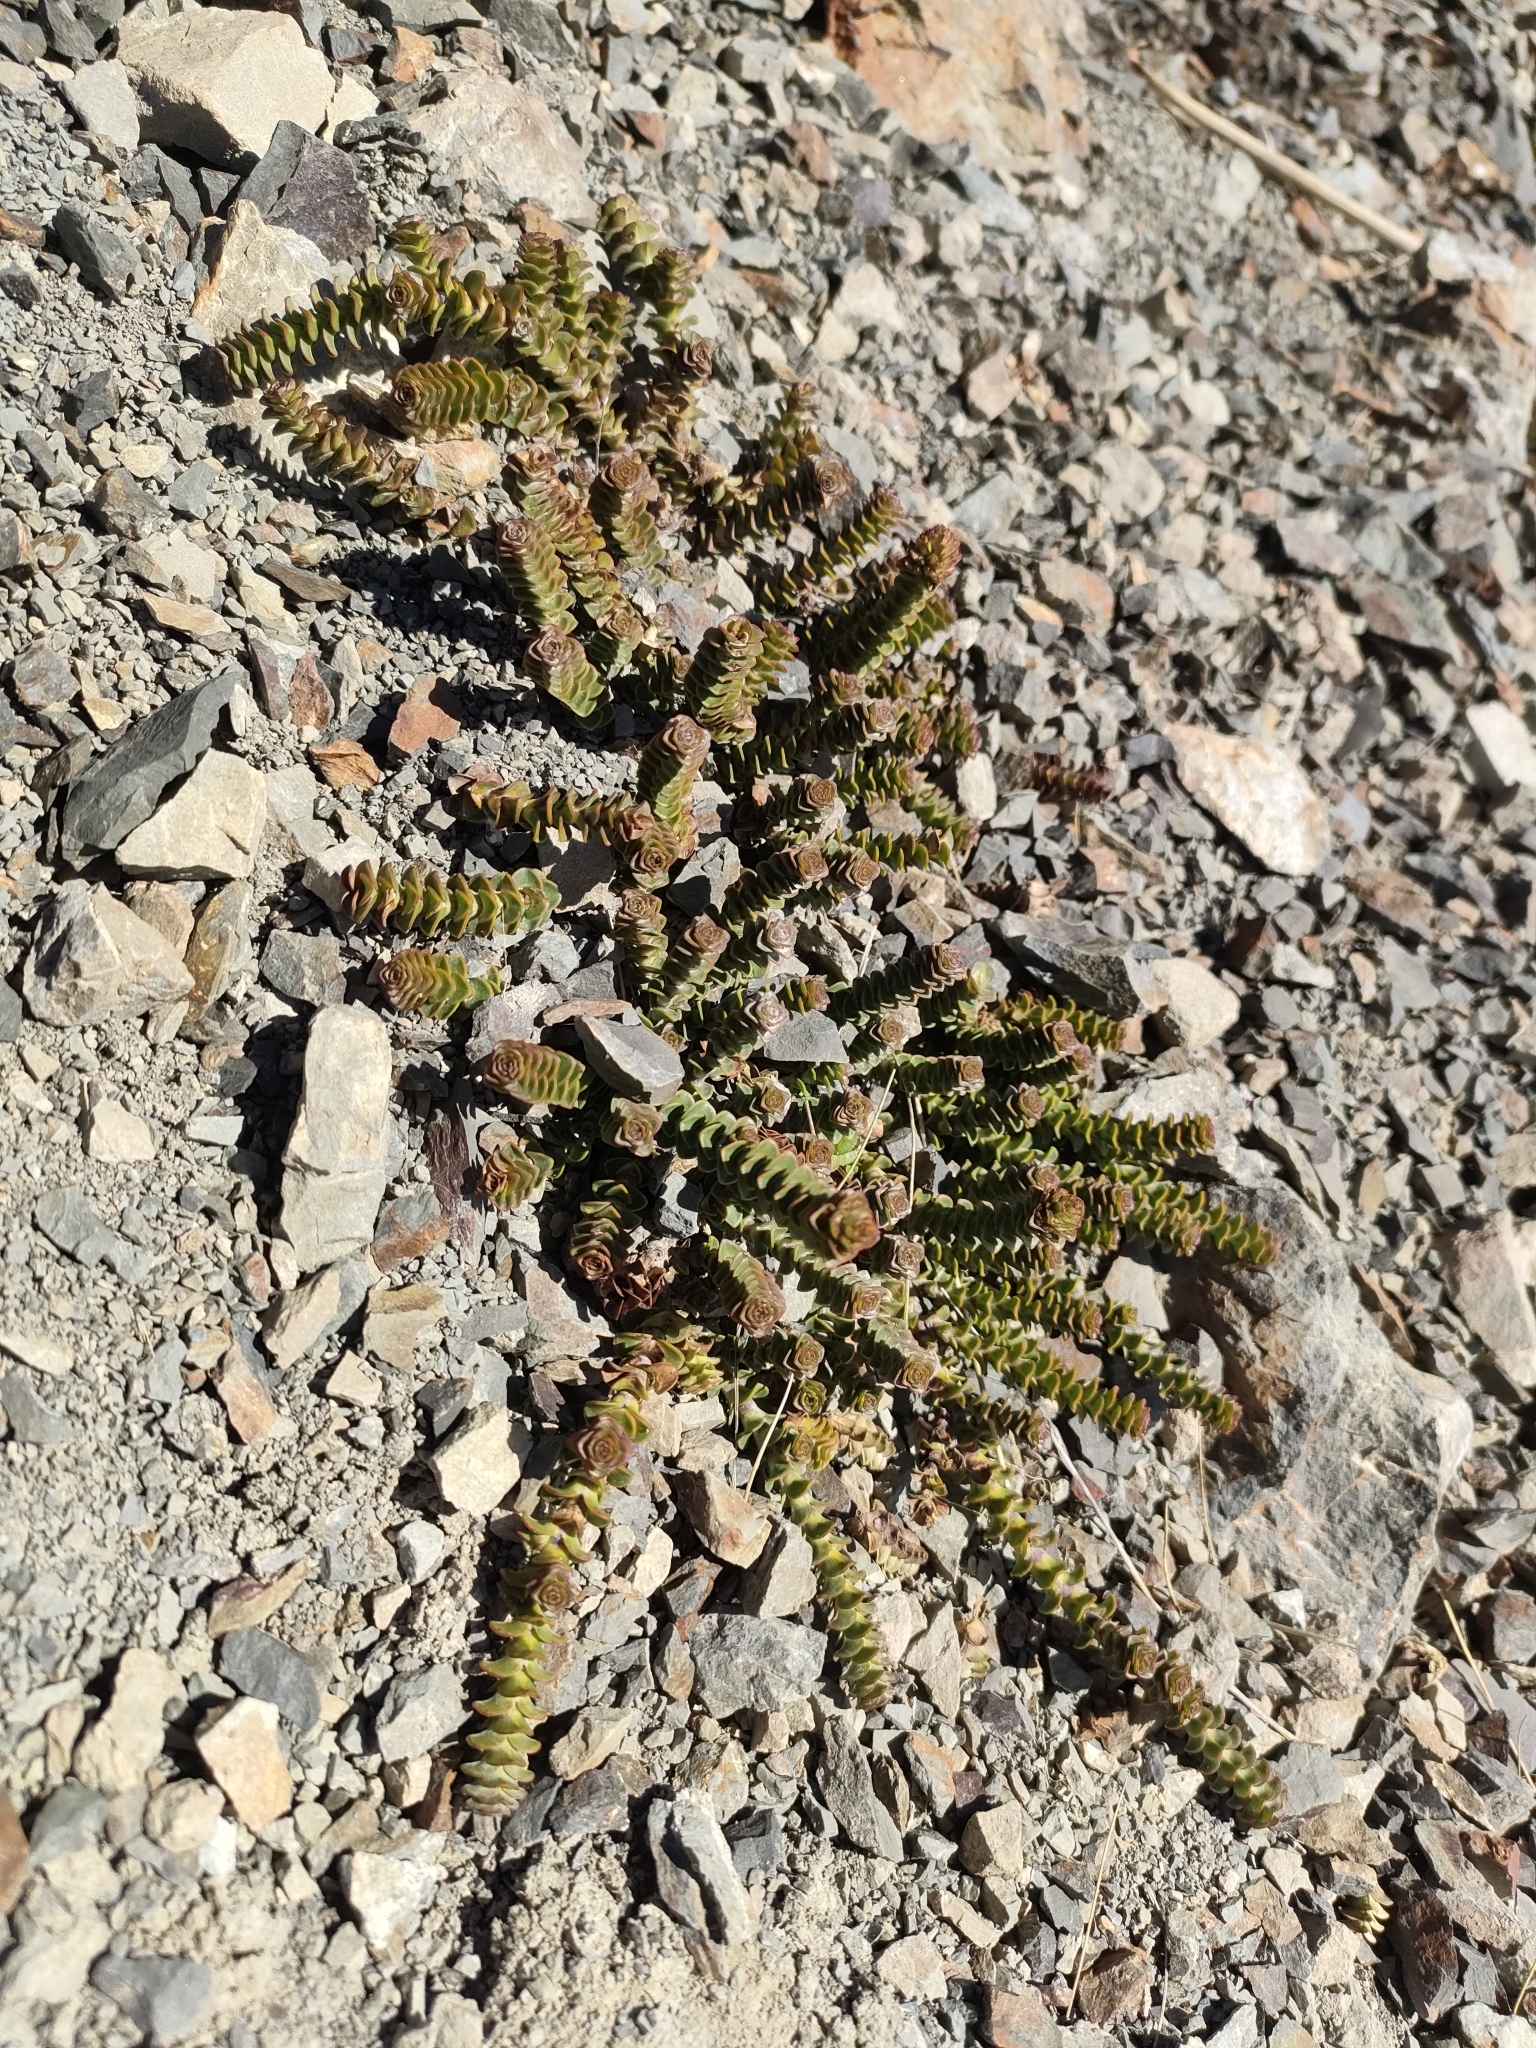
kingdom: Plantae
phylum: Tracheophyta
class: Magnoliopsida
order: Lamiales
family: Plantaginaceae
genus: Veronica
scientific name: Veronica epacridea
